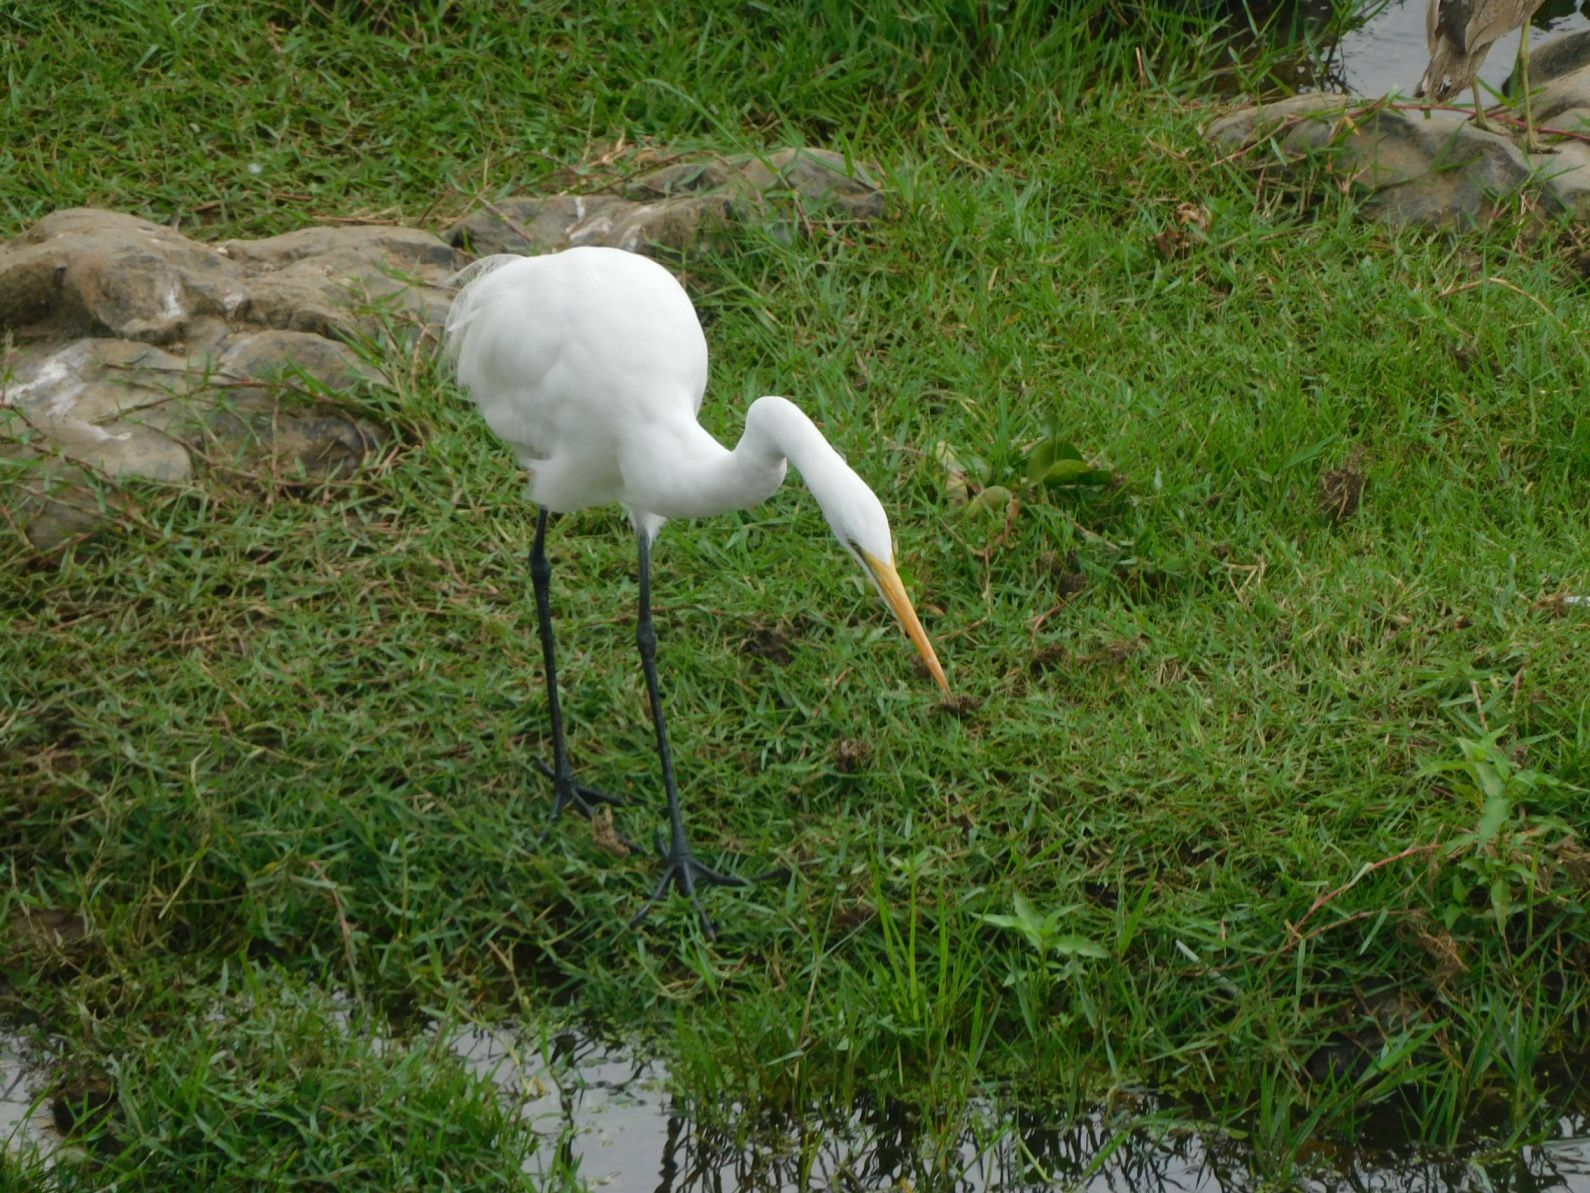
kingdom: Animalia
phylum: Chordata
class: Aves
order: Pelecaniformes
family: Ardeidae
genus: Ardea
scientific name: Ardea alba
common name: Great egret
